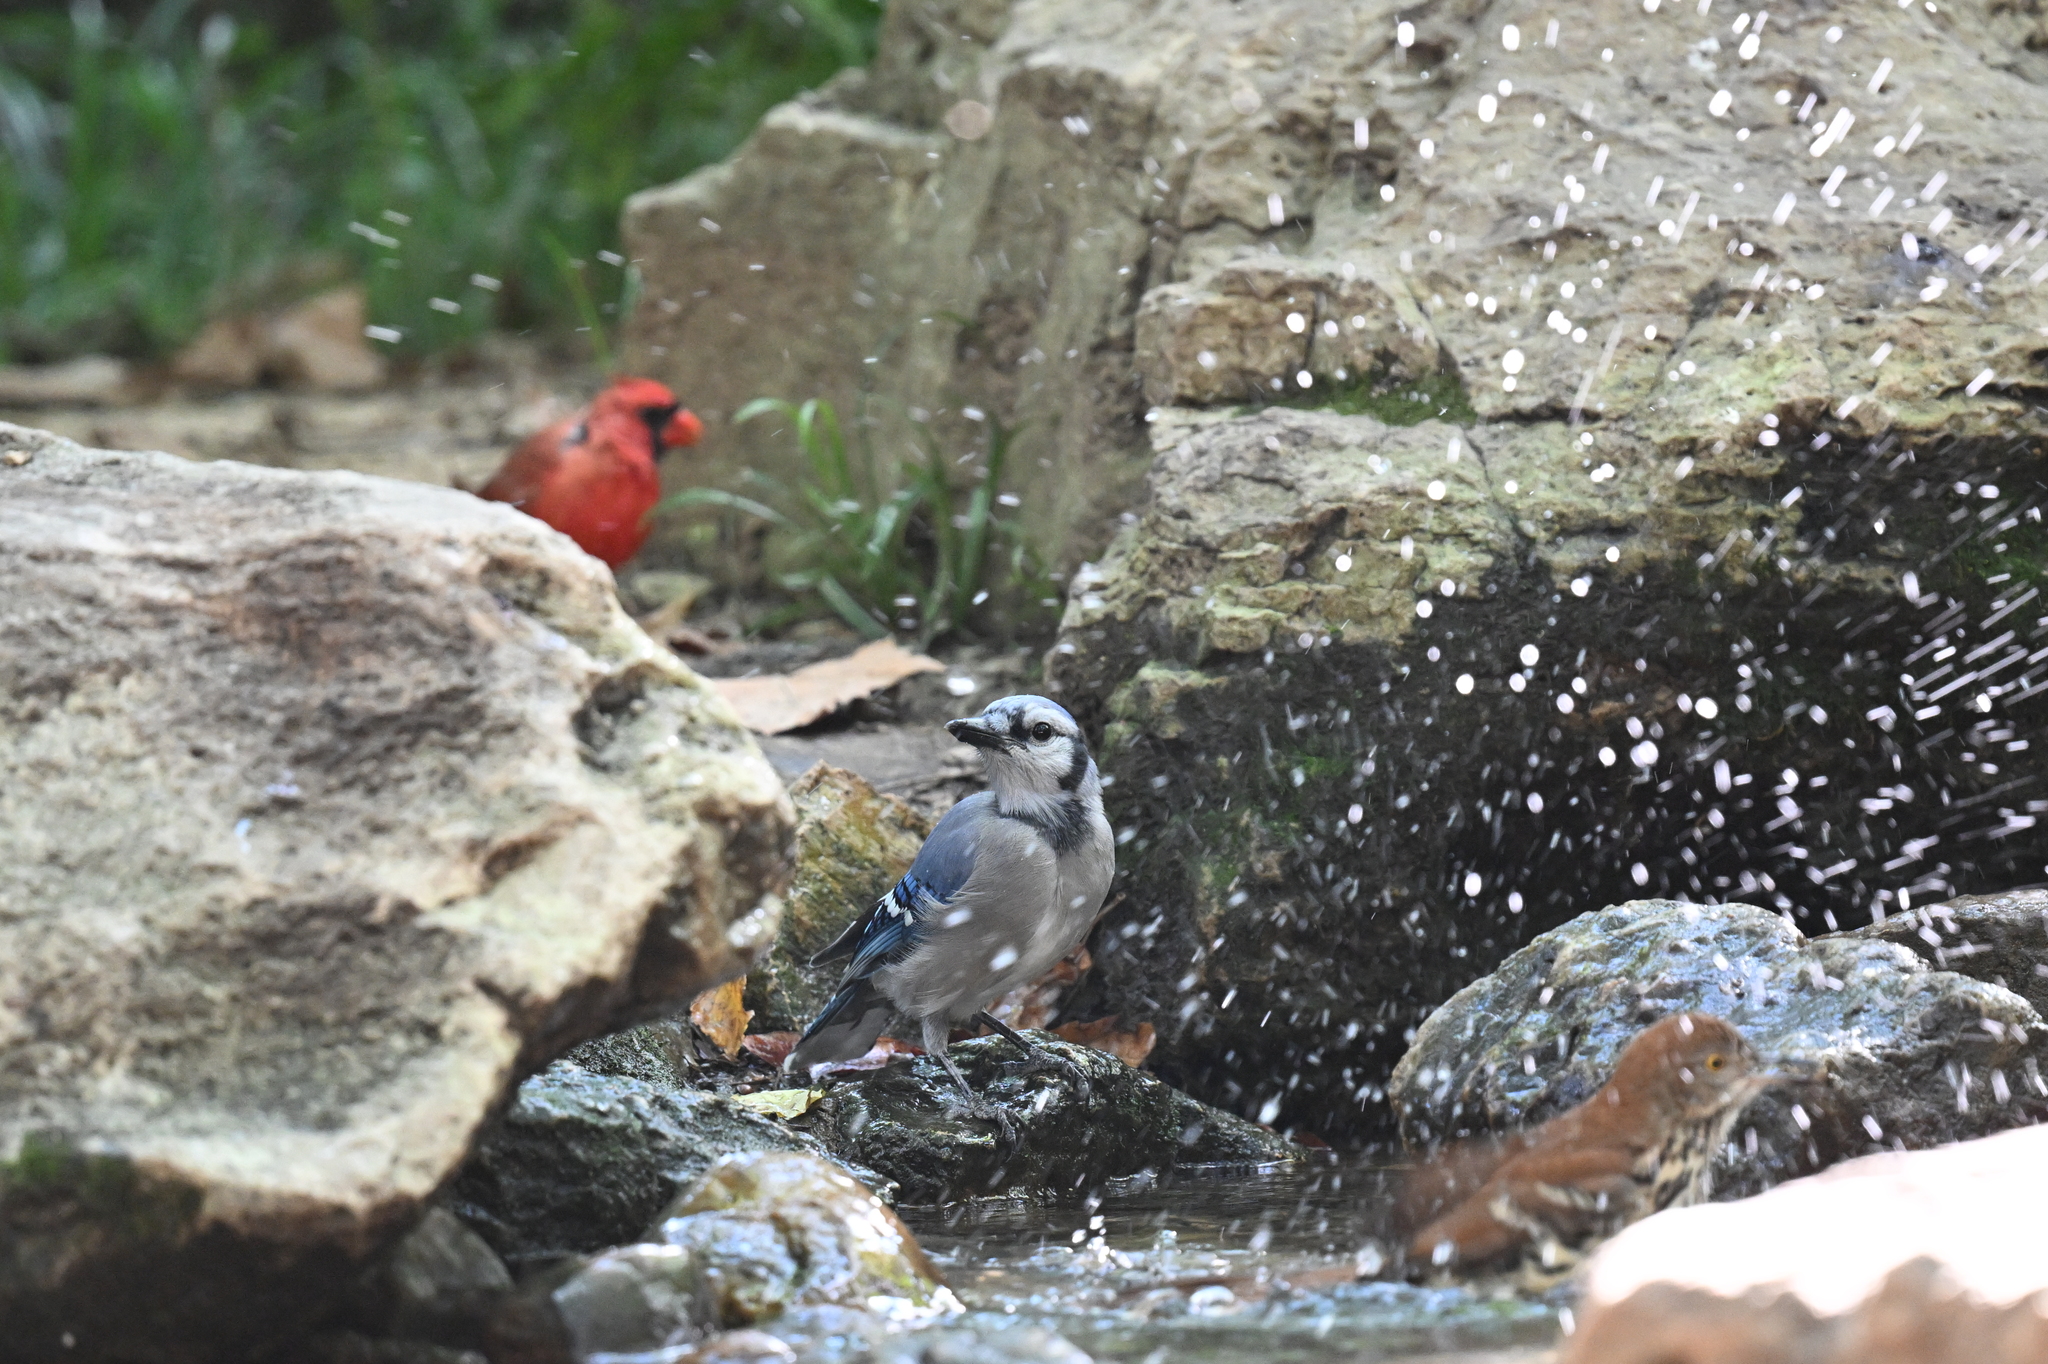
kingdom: Animalia
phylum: Chordata
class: Aves
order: Passeriformes
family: Corvidae
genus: Cyanocitta
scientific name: Cyanocitta cristata
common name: Blue jay
